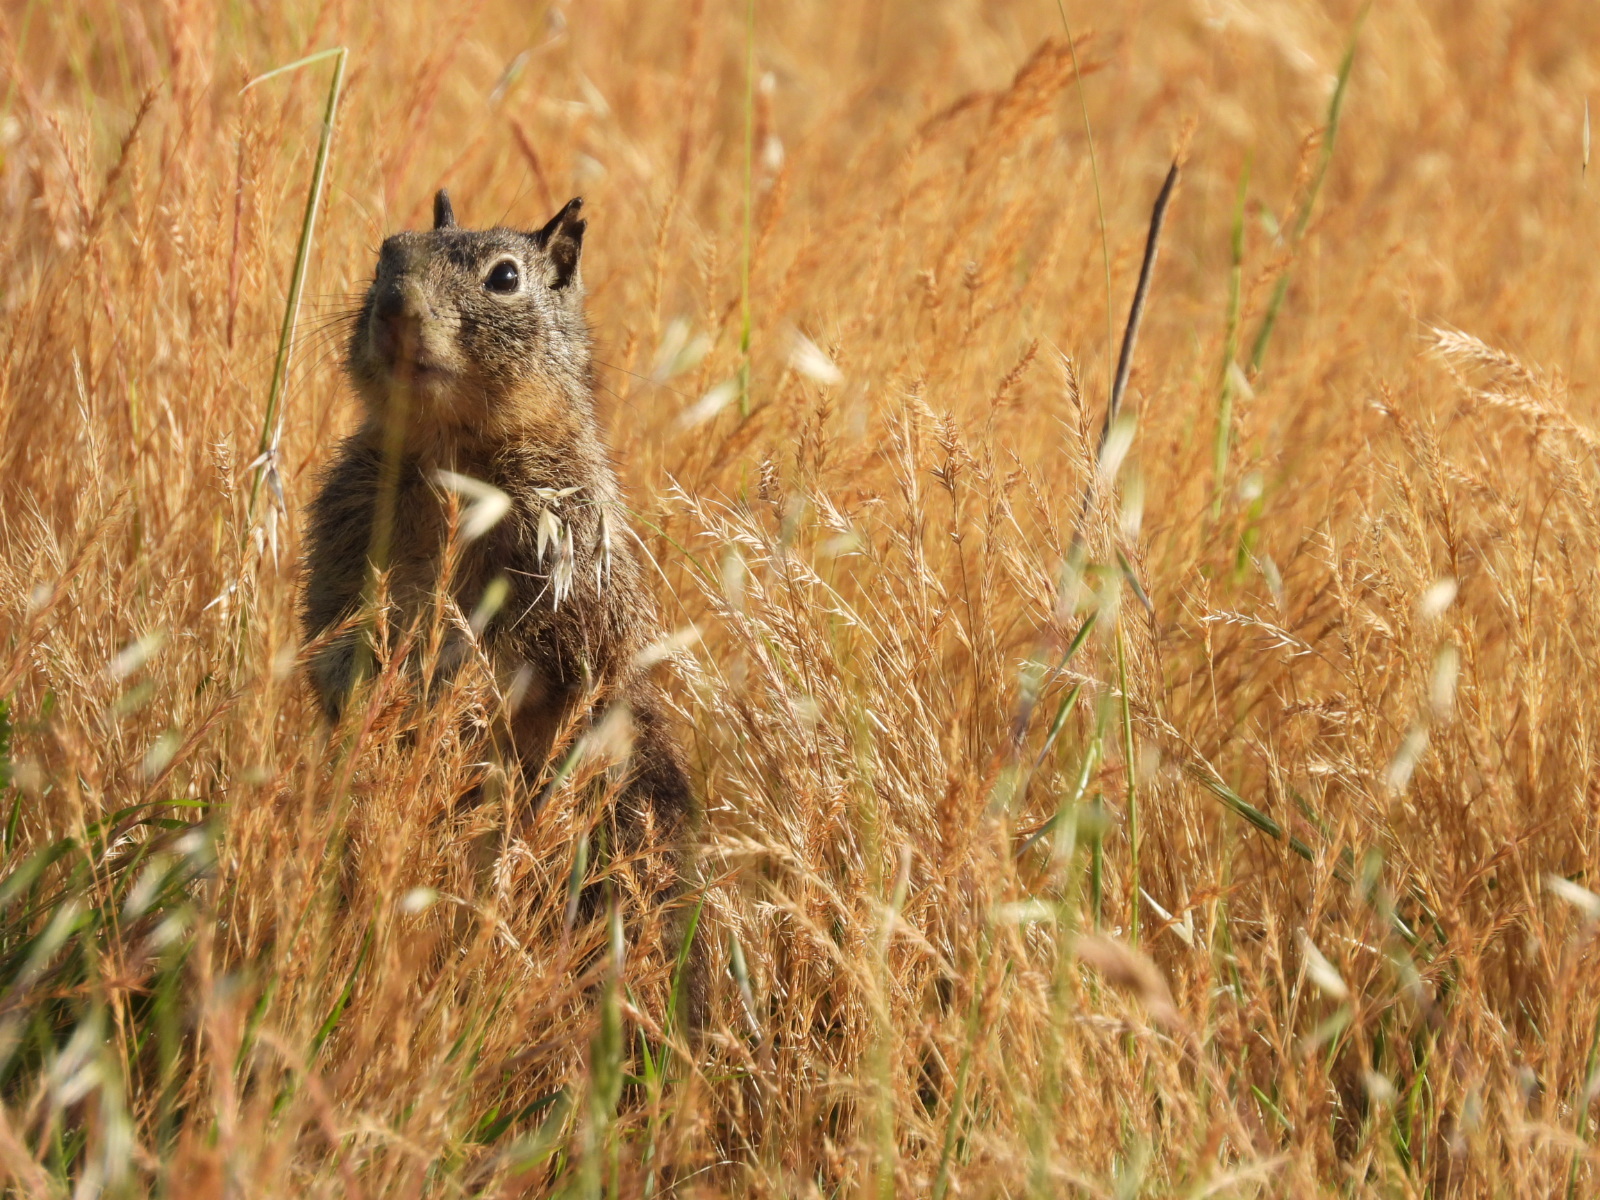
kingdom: Animalia
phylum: Chordata
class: Mammalia
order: Rodentia
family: Sciuridae
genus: Otospermophilus
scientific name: Otospermophilus beecheyi
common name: California ground squirrel
